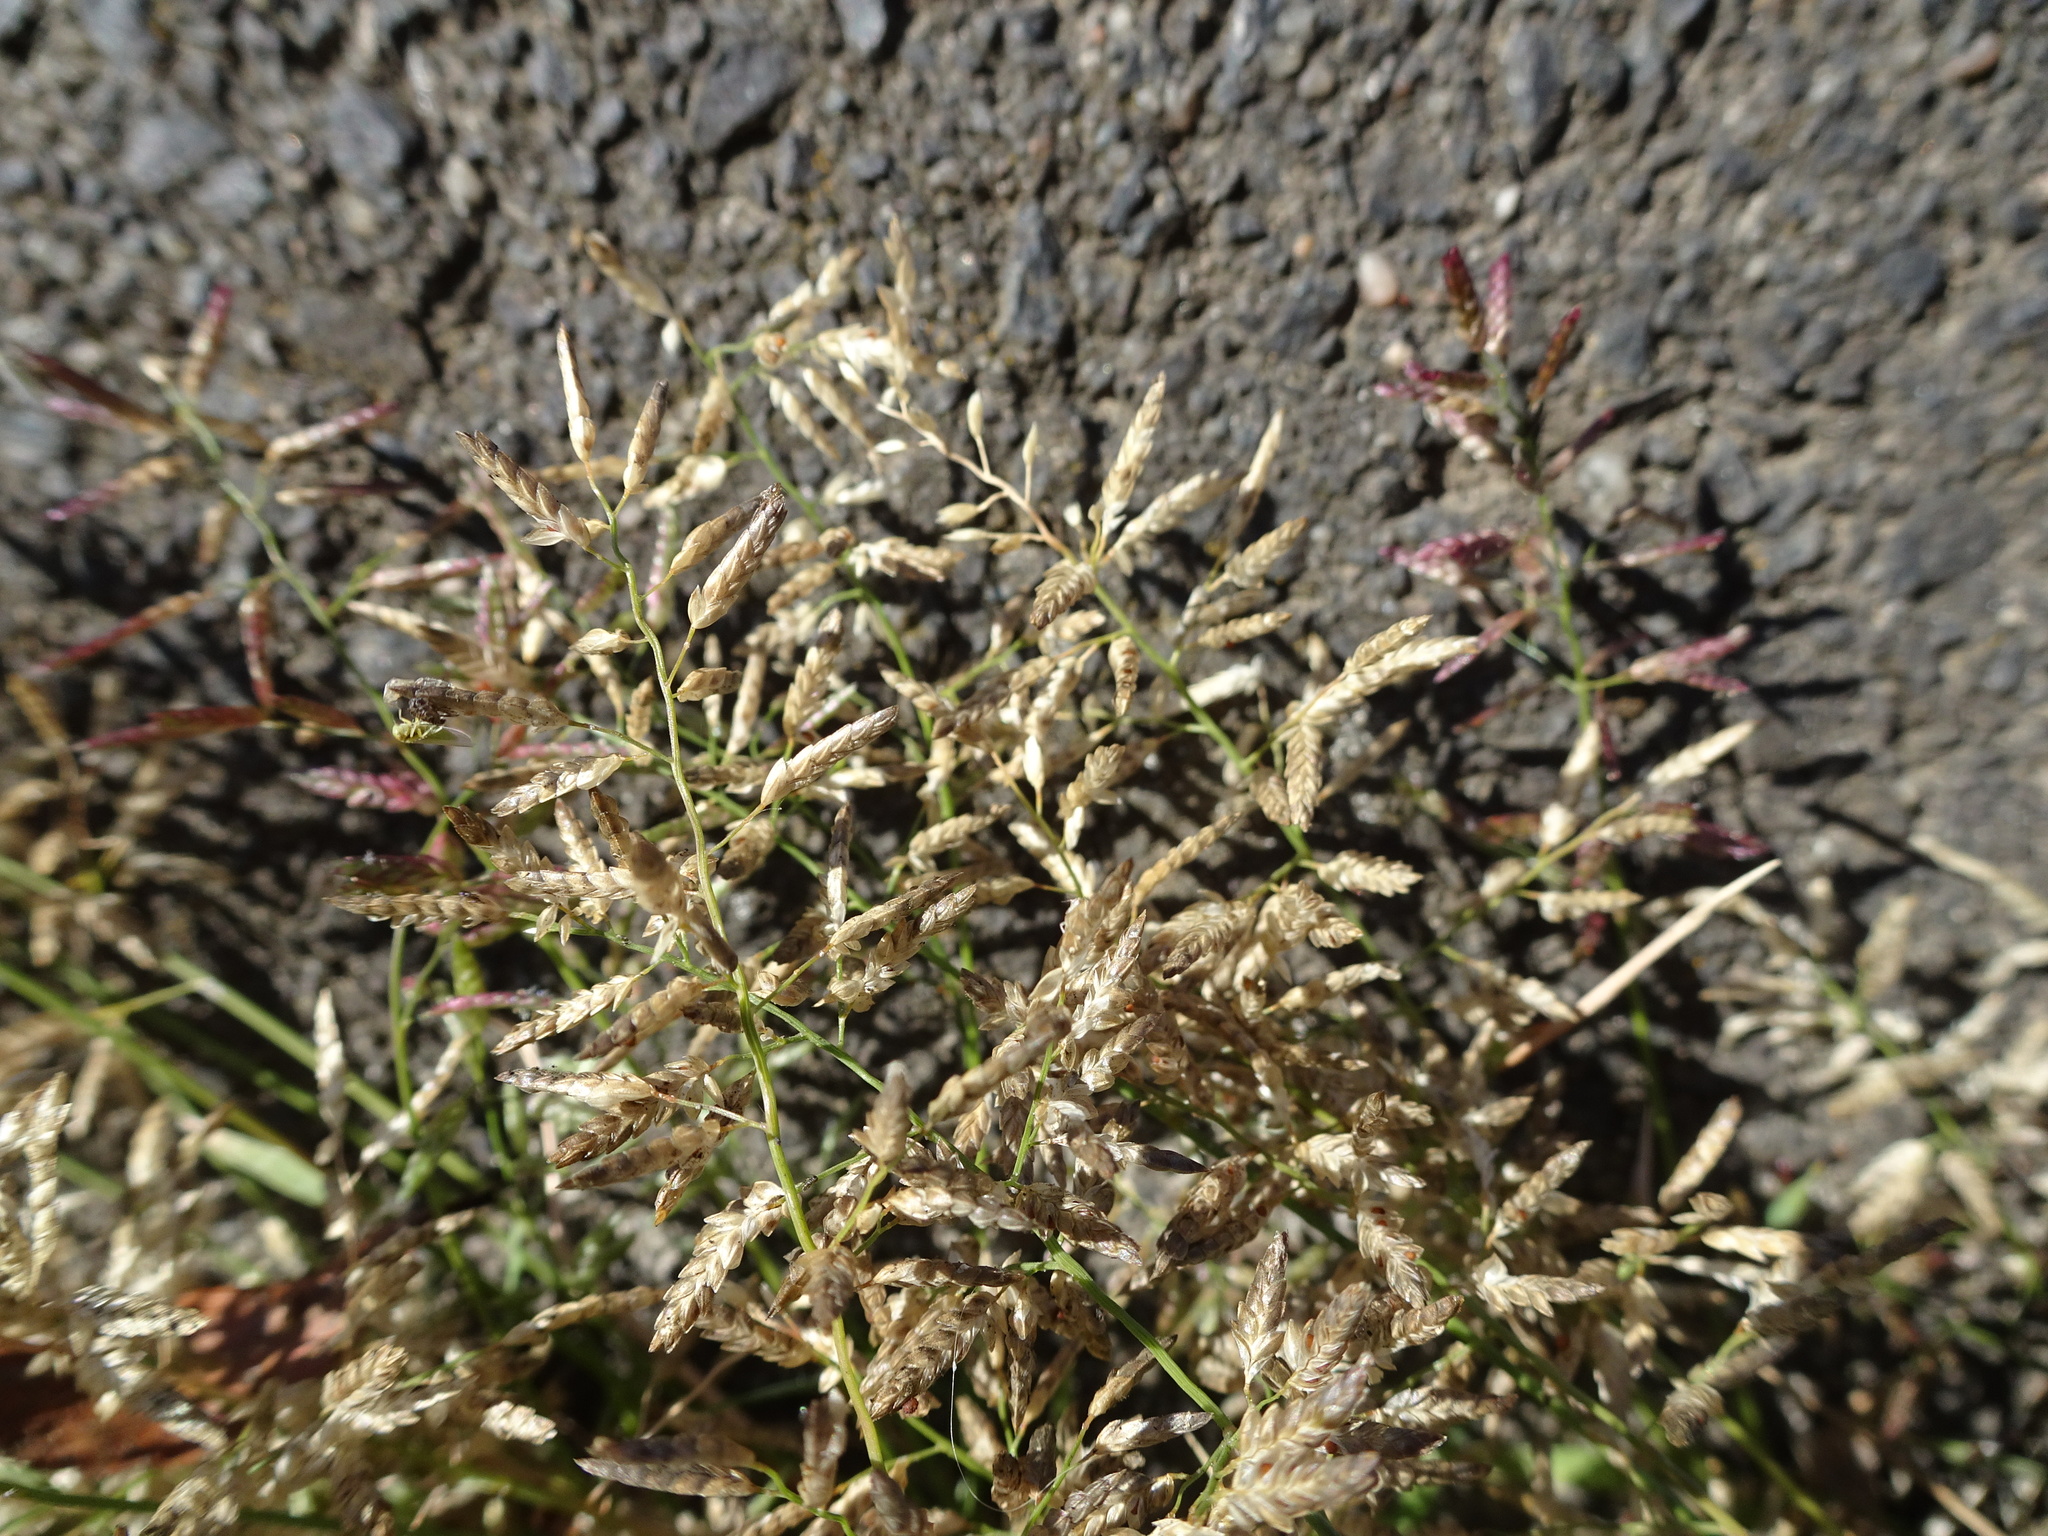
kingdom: Plantae
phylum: Tracheophyta
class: Liliopsida
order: Poales
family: Poaceae
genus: Eragrostis
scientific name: Eragrostis minor
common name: Small love-grass
